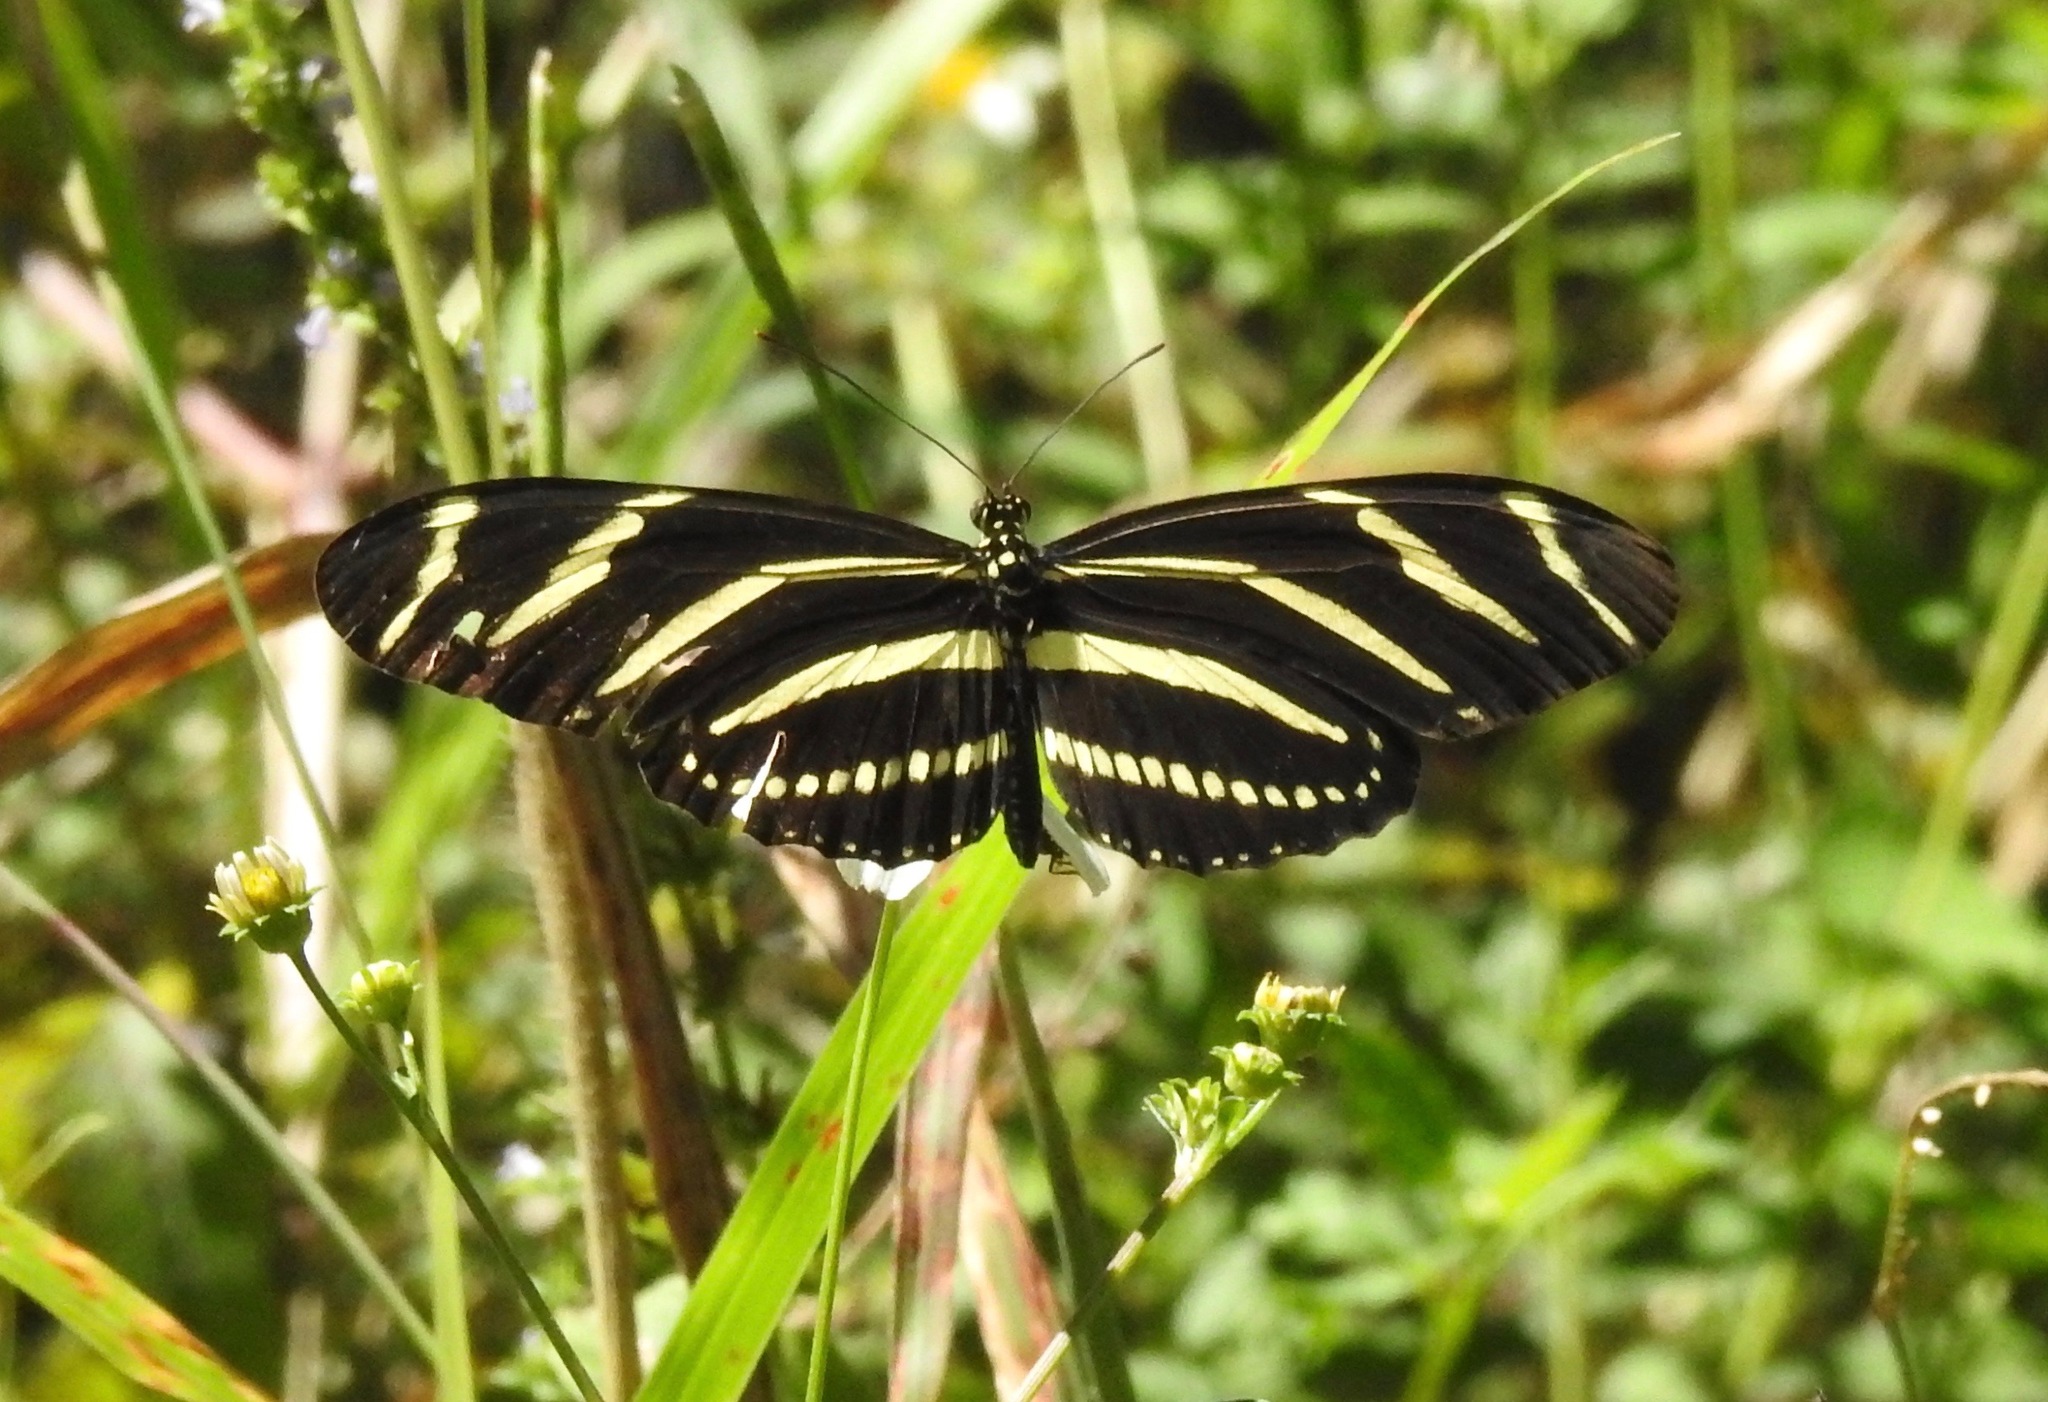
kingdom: Animalia
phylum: Arthropoda
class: Insecta
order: Lepidoptera
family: Nymphalidae
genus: Heliconius
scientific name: Heliconius charithonia
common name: Zebra long wing
